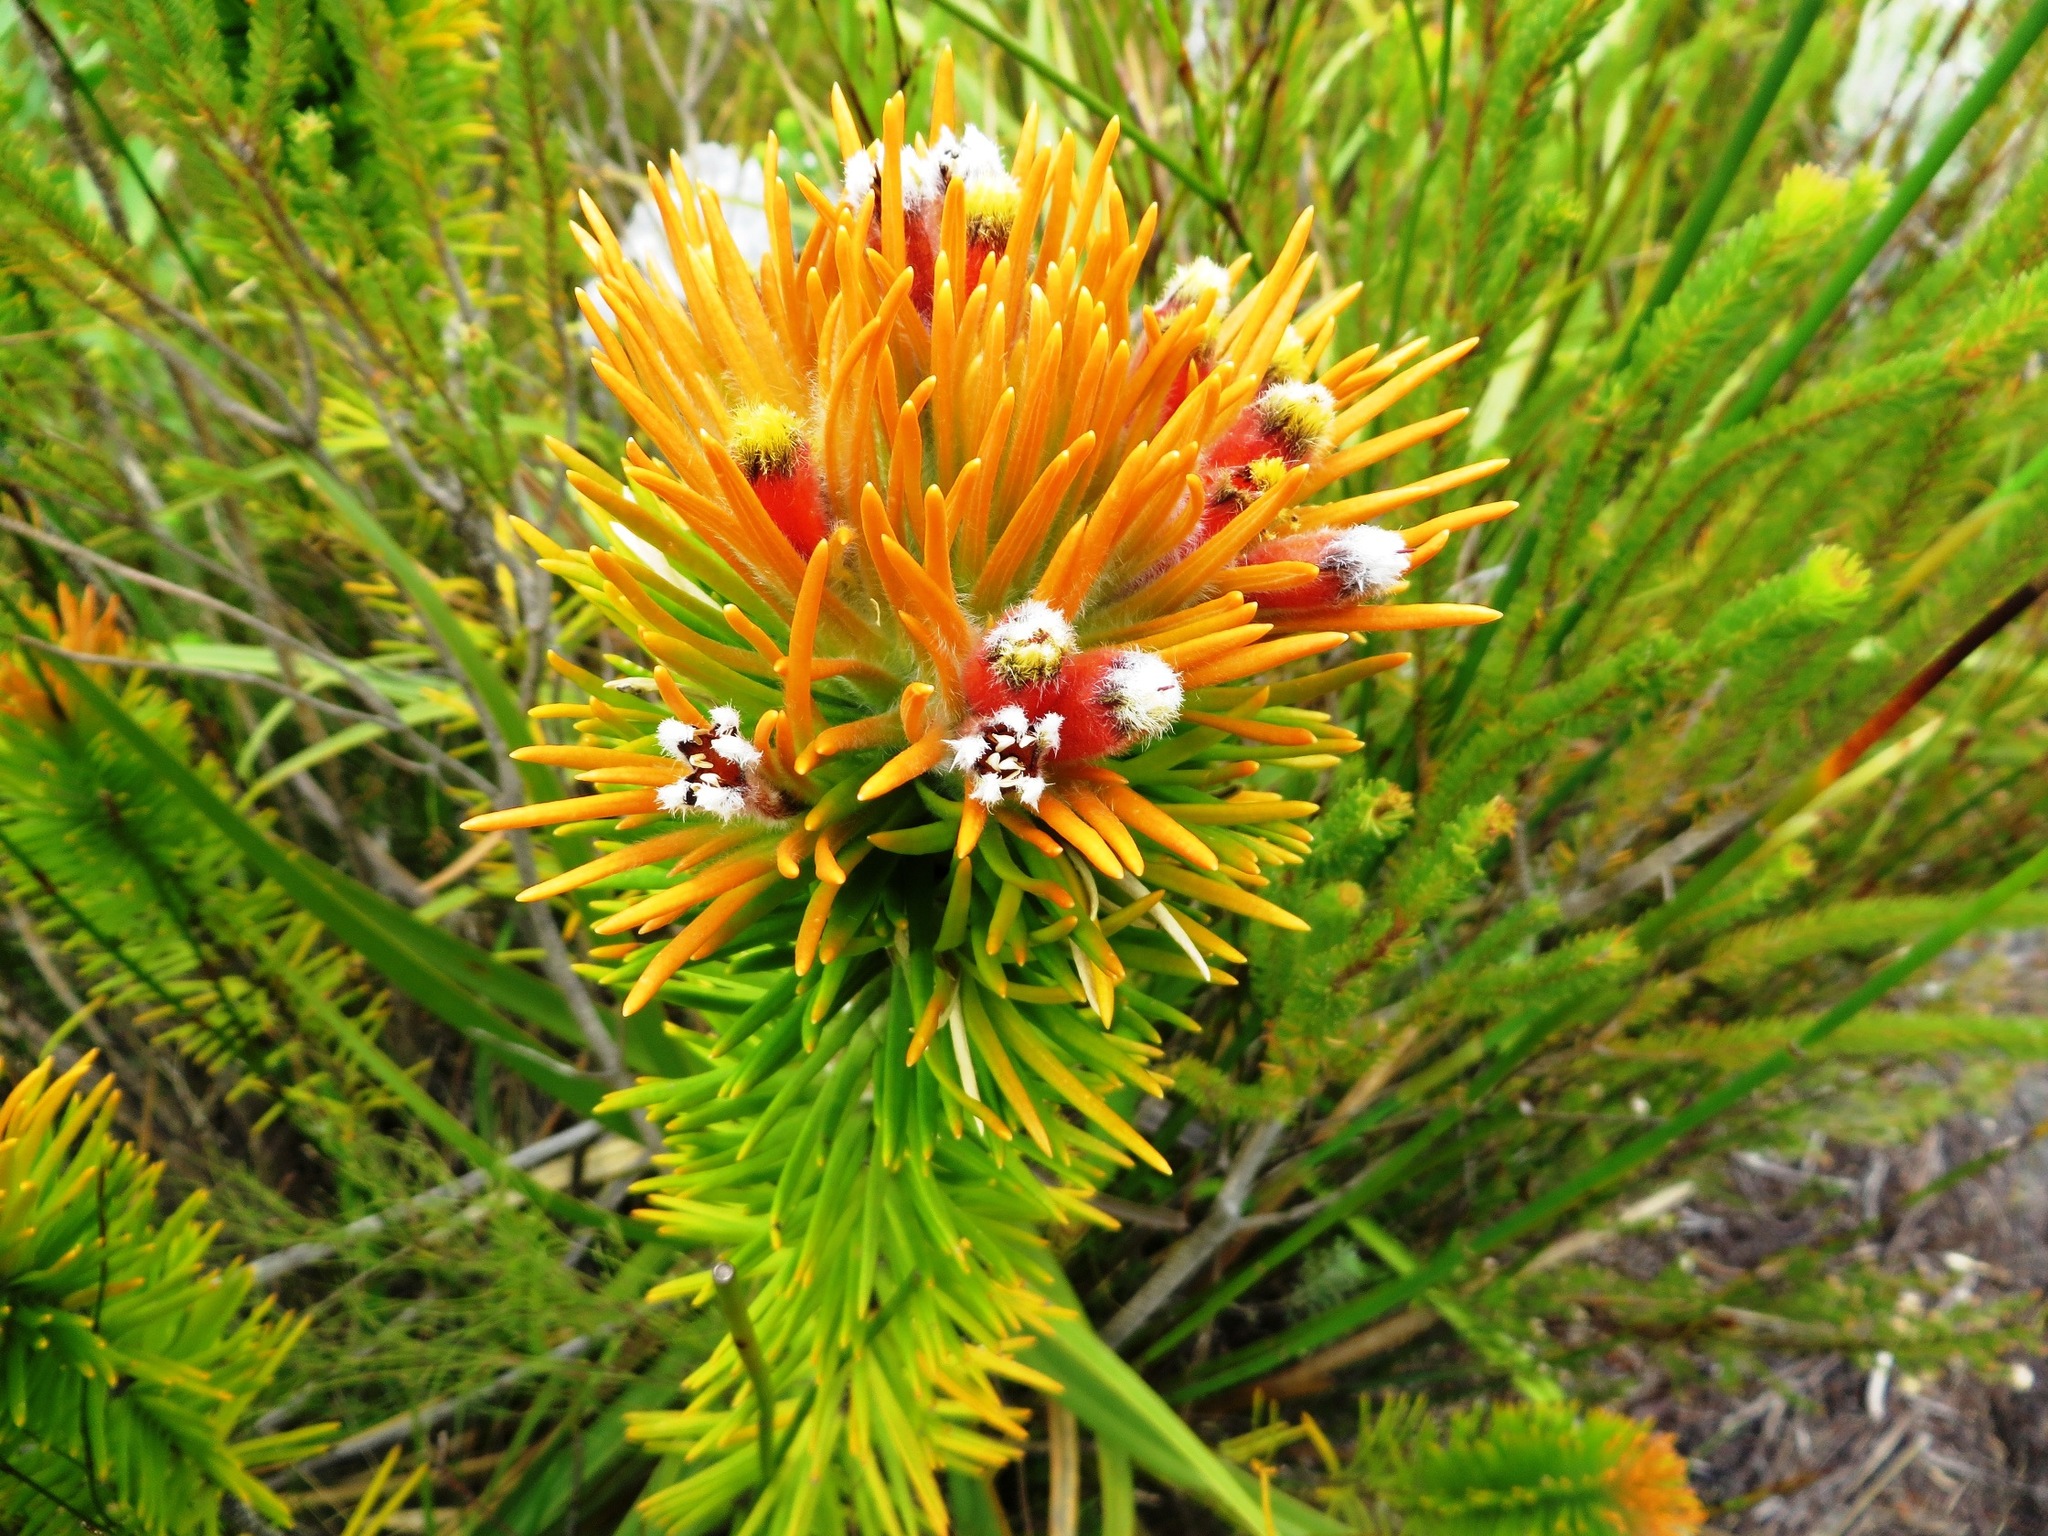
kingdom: Plantae
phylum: Tracheophyta
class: Magnoliopsida
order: Lamiales
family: Stilbaceae
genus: Retzia
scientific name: Retzia capensis
